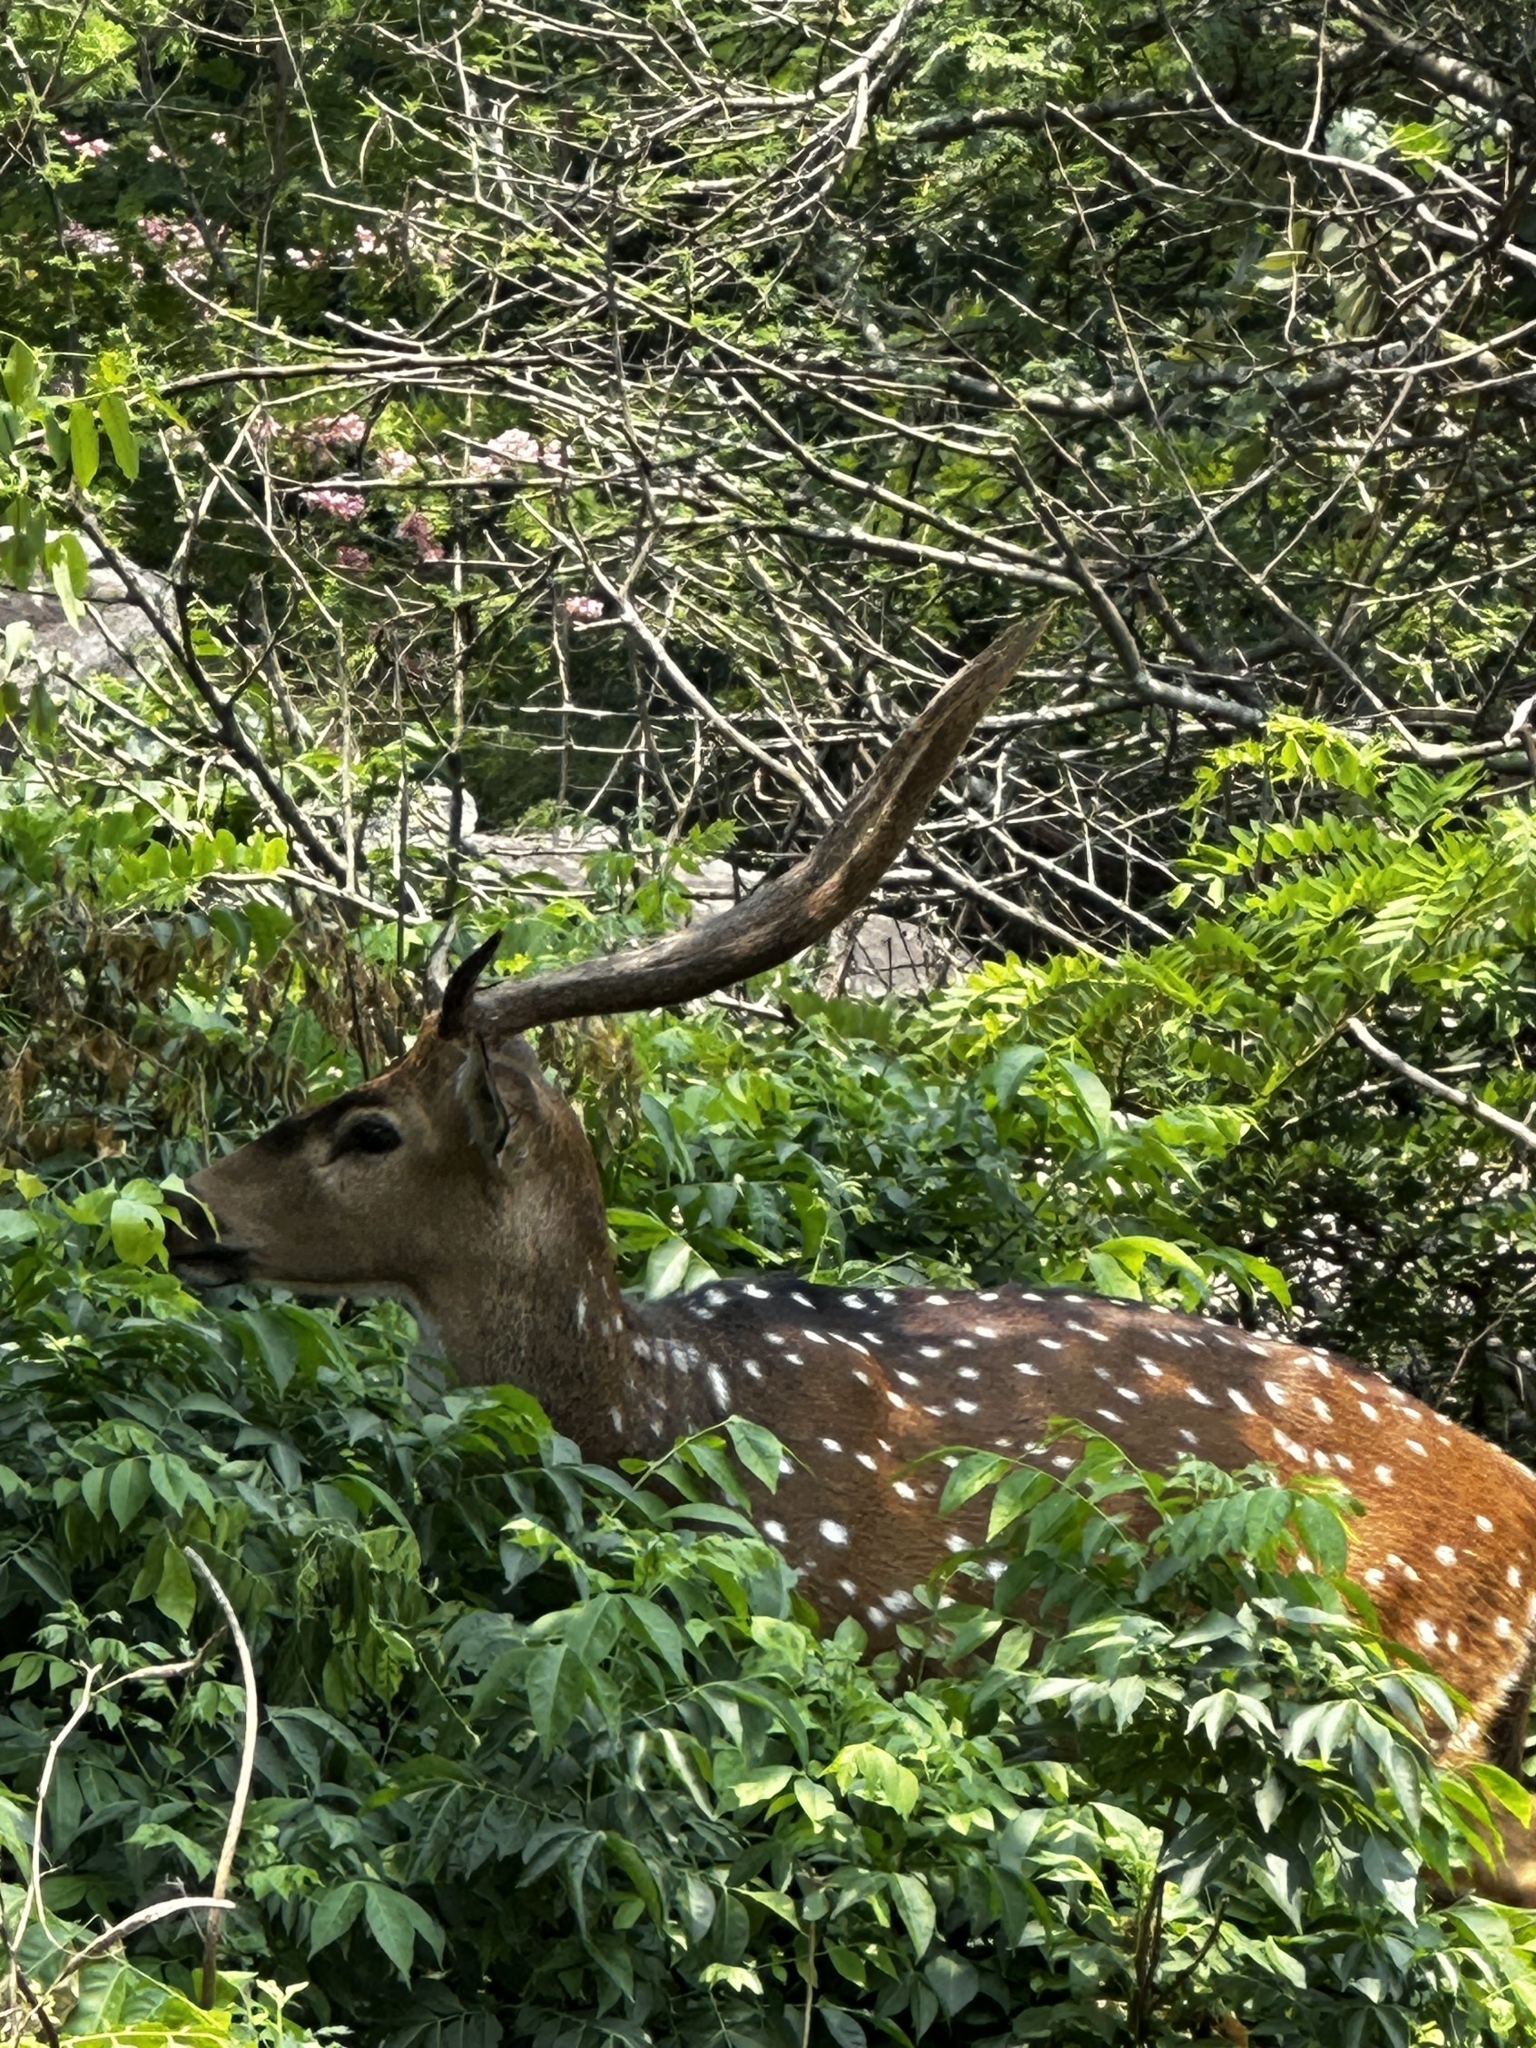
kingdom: Animalia
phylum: Chordata
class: Mammalia
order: Artiodactyla
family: Cervidae
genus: Axis
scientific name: Axis axis
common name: Chital
